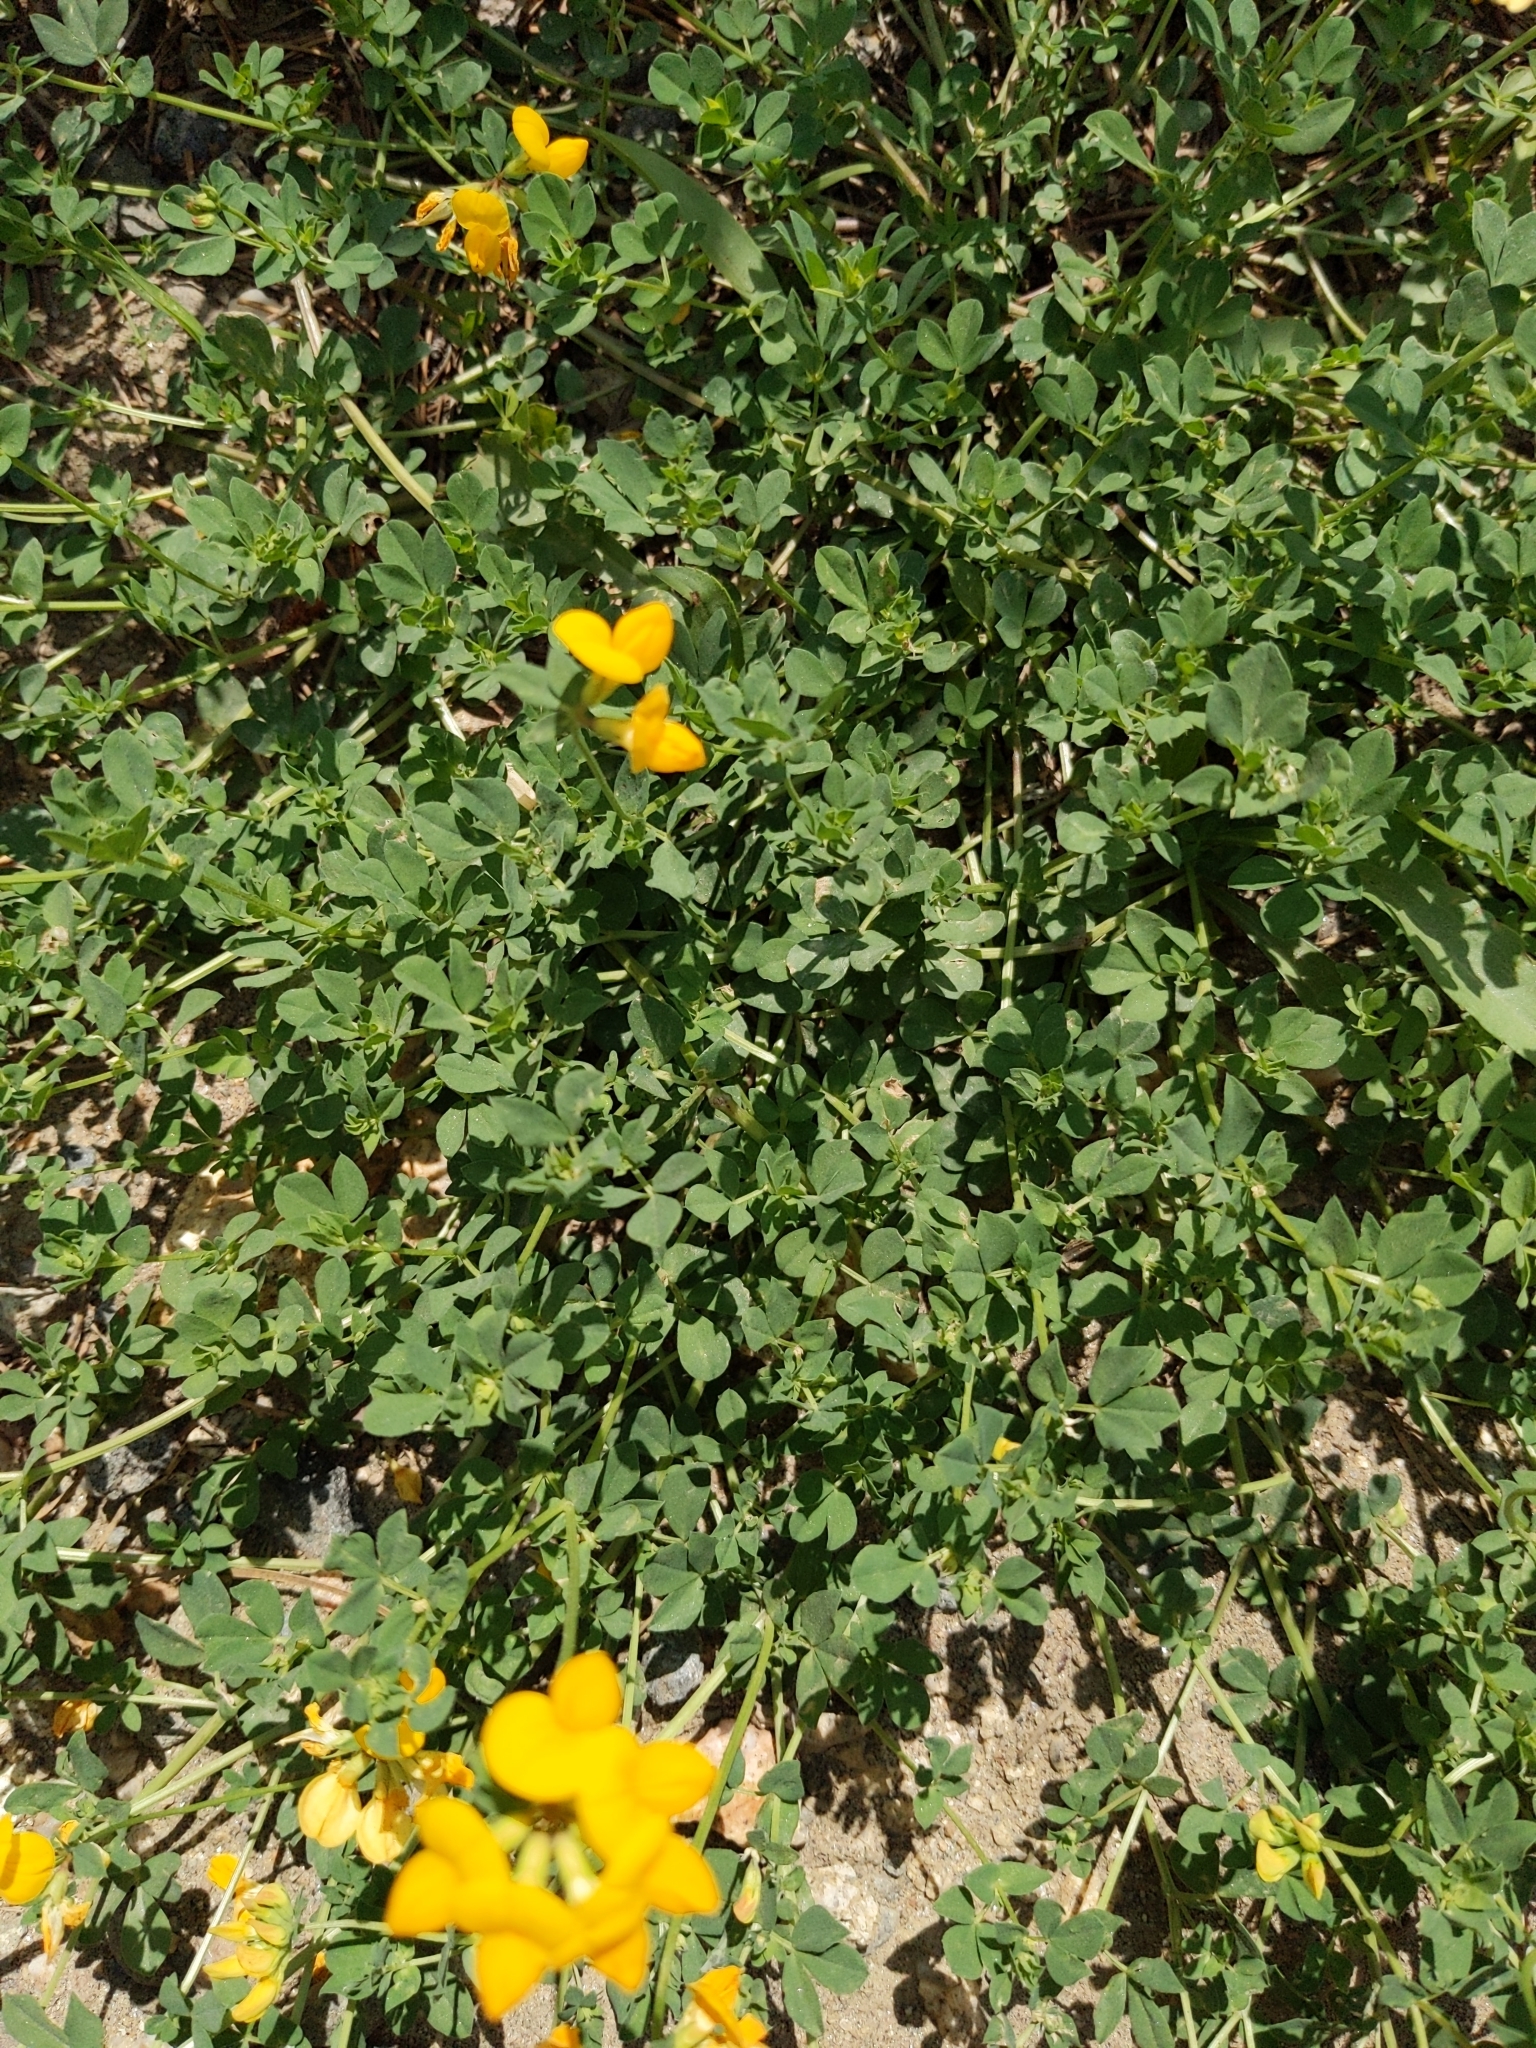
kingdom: Plantae
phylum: Tracheophyta
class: Magnoliopsida
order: Fabales
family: Fabaceae
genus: Lotus
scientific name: Lotus corniculatus
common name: Common bird's-foot-trefoil
